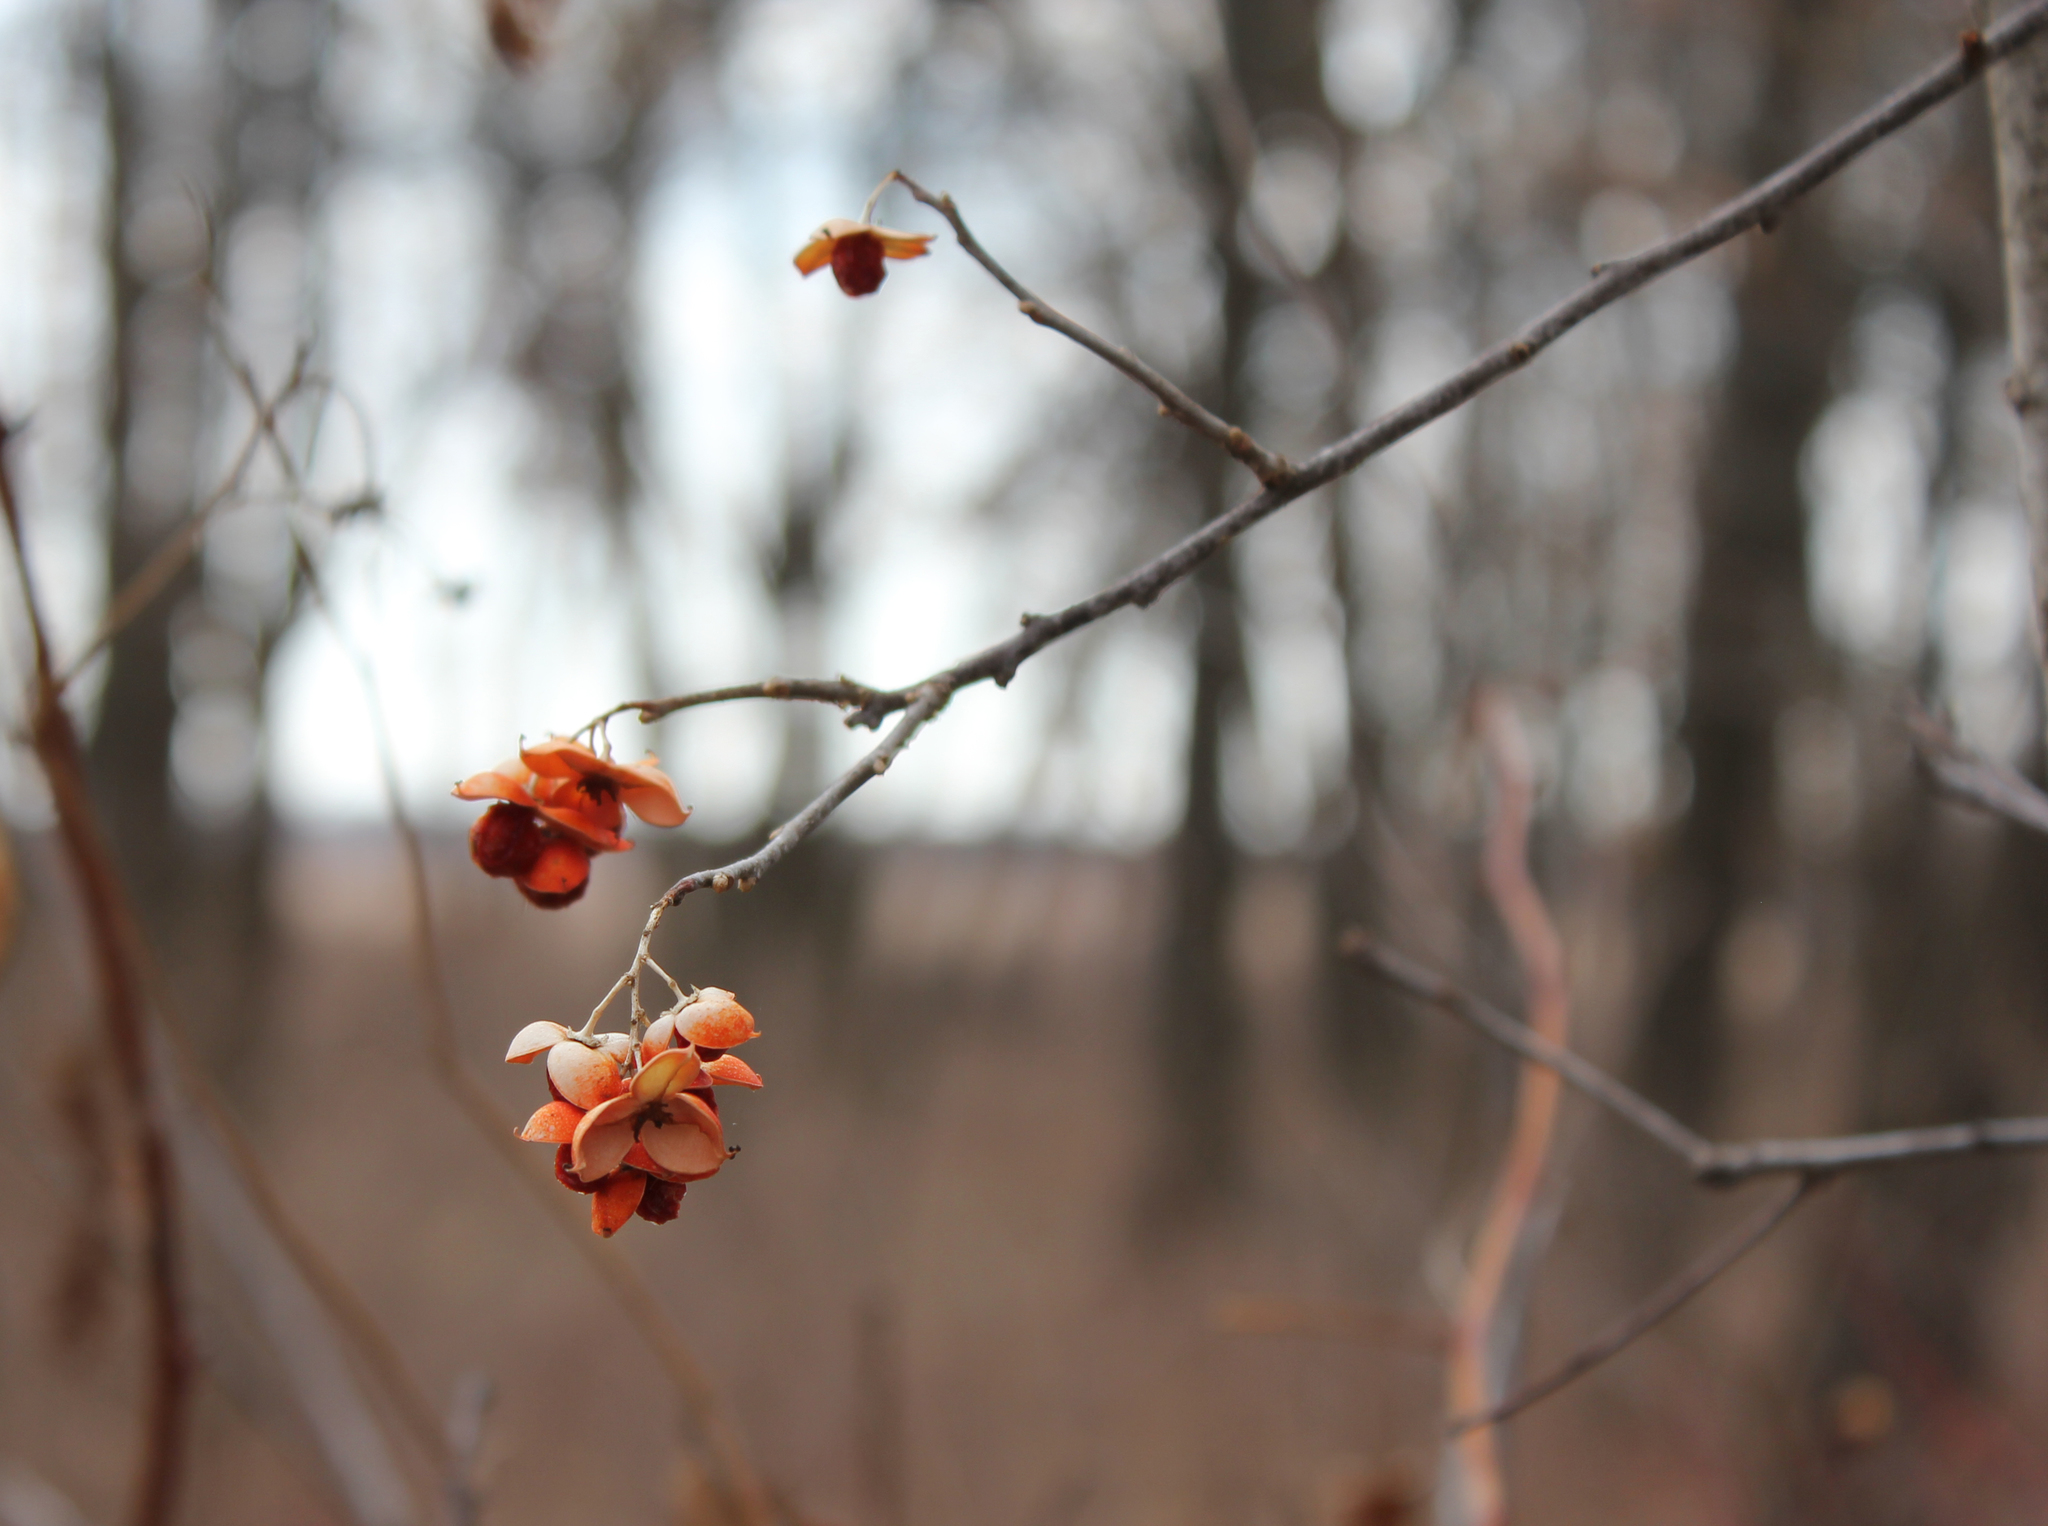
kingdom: Plantae
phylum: Tracheophyta
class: Magnoliopsida
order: Celastrales
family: Celastraceae
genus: Celastrus
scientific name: Celastrus scandens
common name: American bittersweet
